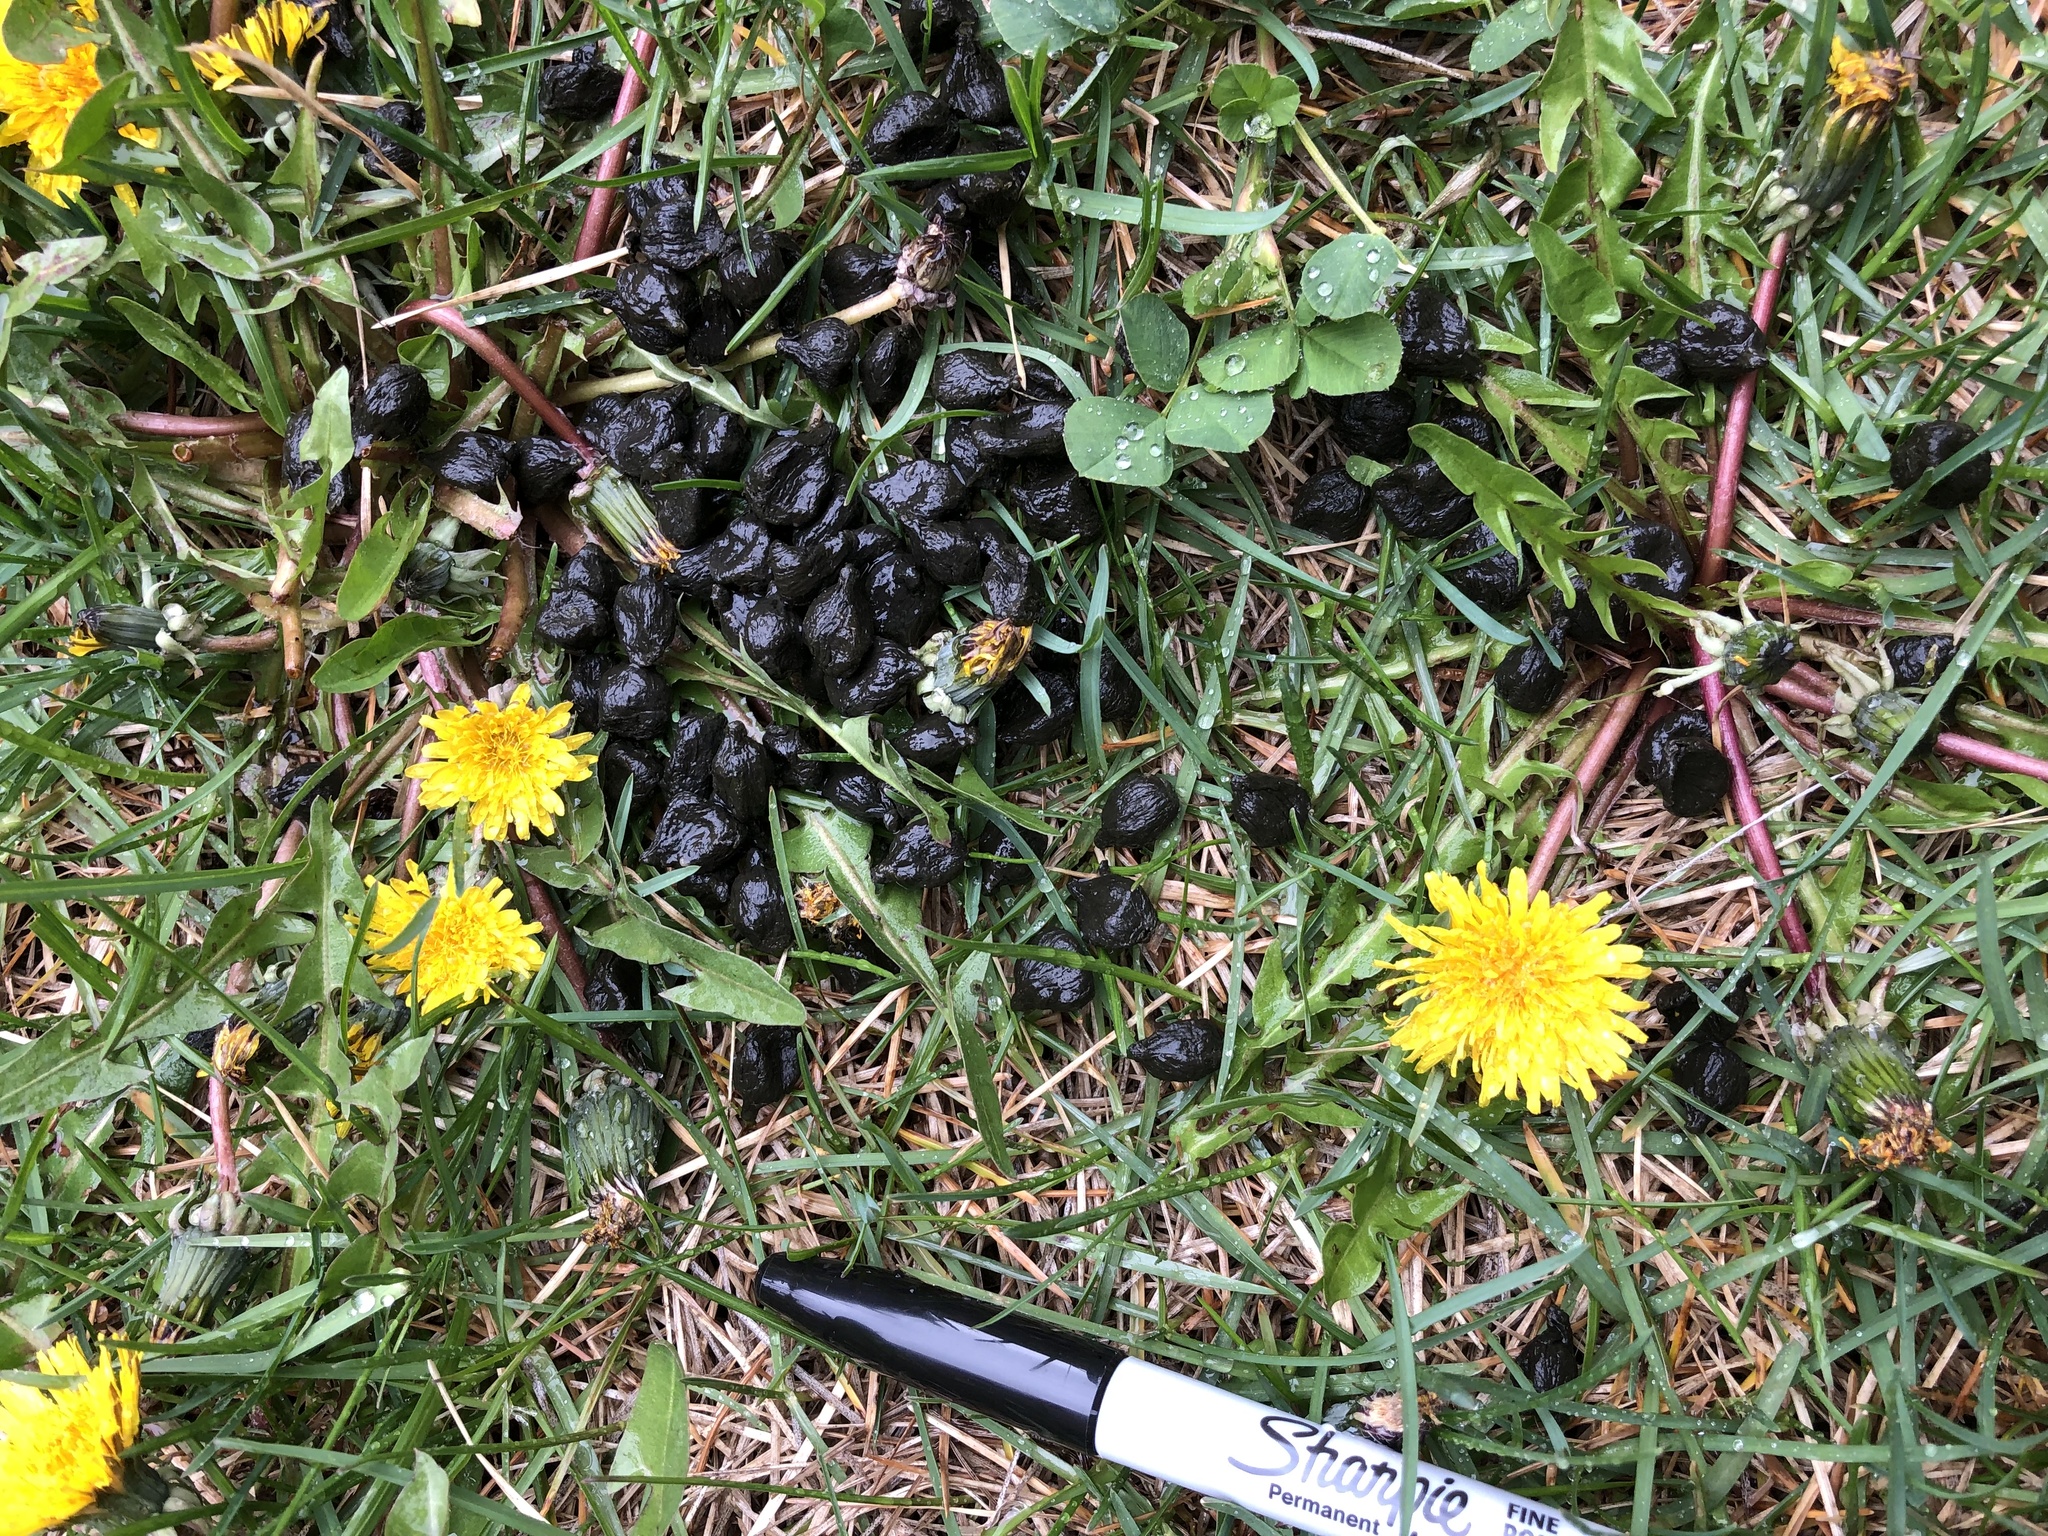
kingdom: Animalia
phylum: Chordata
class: Mammalia
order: Artiodactyla
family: Cervidae
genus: Odocoileus
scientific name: Odocoileus hemionus
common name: Mule deer
